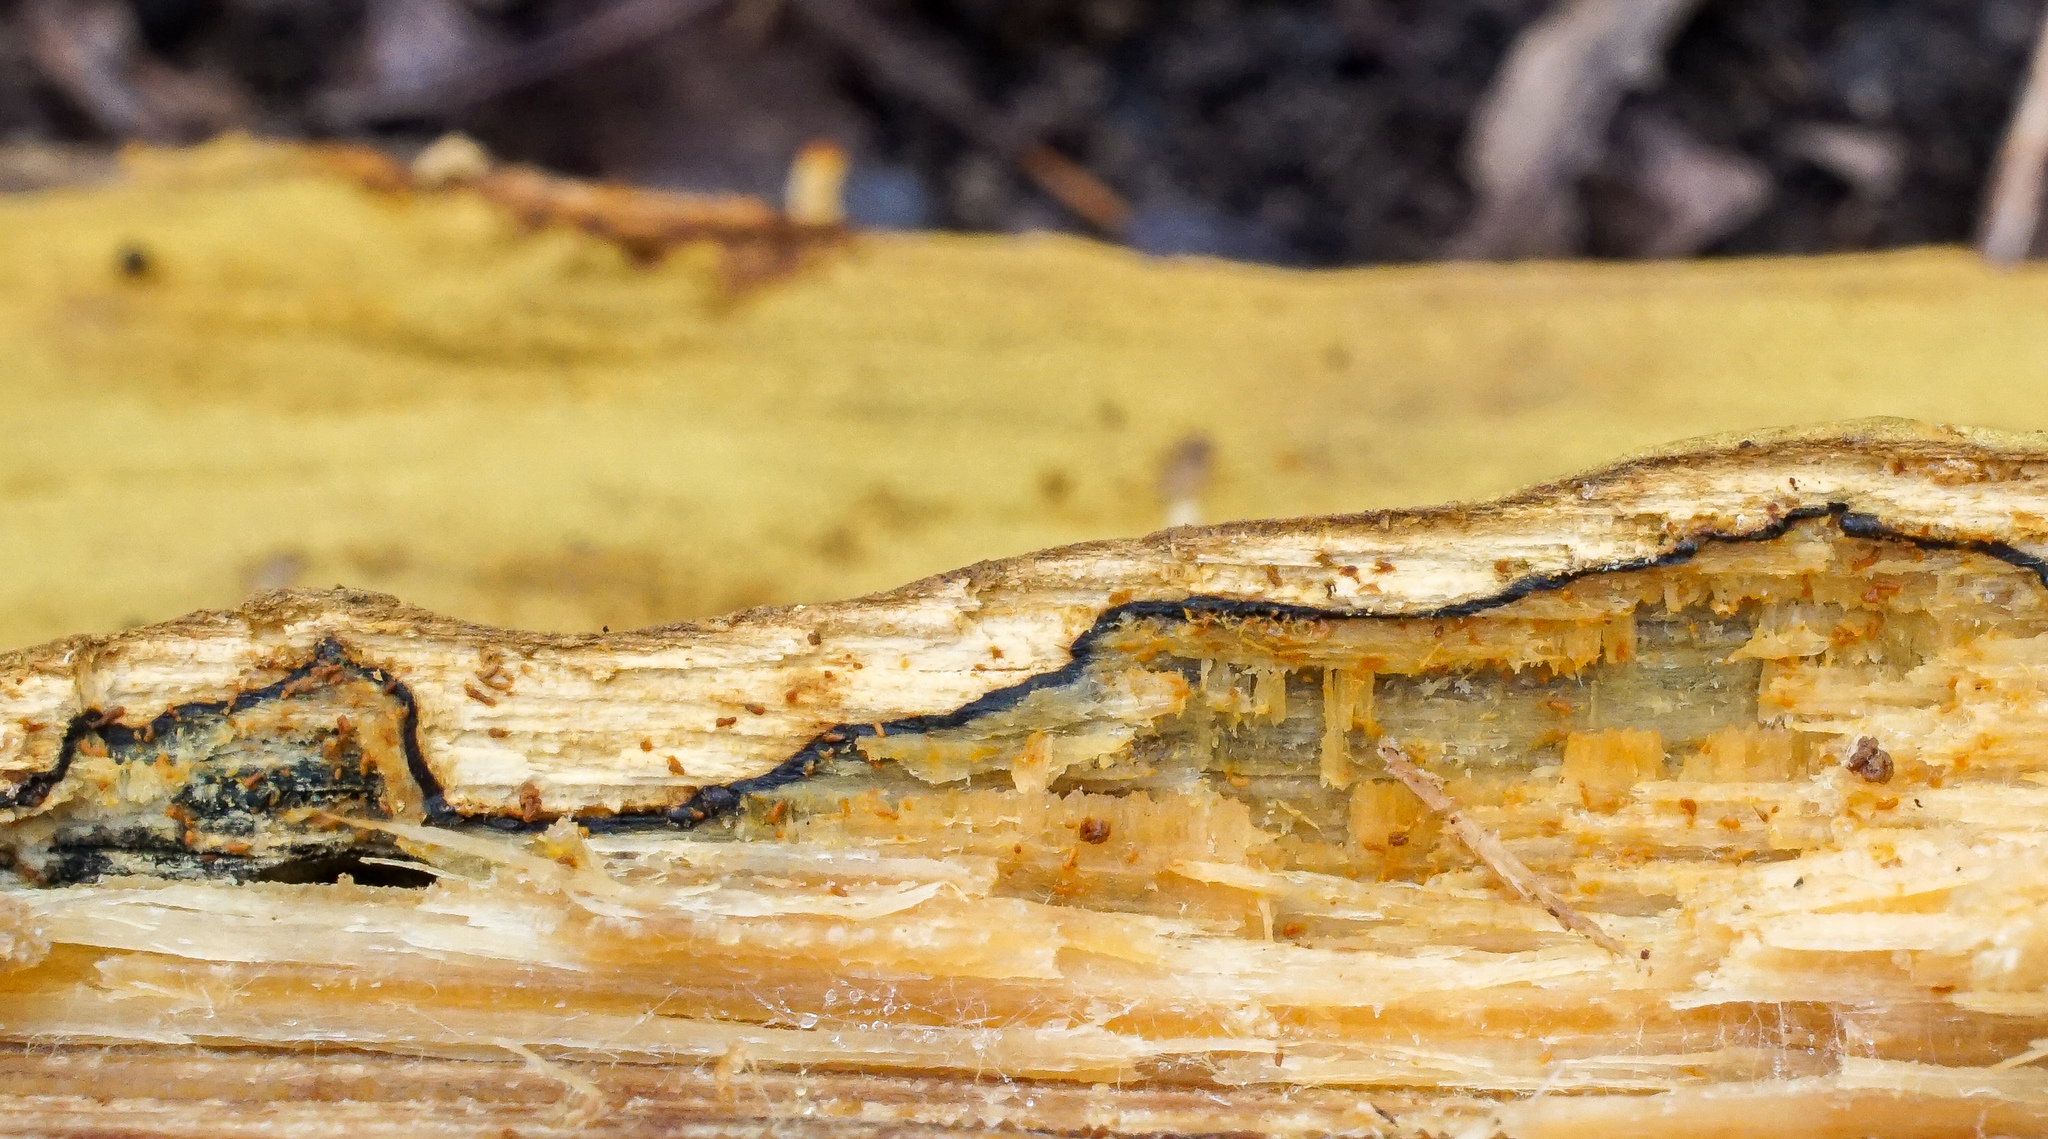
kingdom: Fungi
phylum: Basidiomycota
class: Agaricomycetes
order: Hymenochaetales
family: Hymenochaetaceae
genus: Xanthoporia
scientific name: Xanthoporia andersonii
